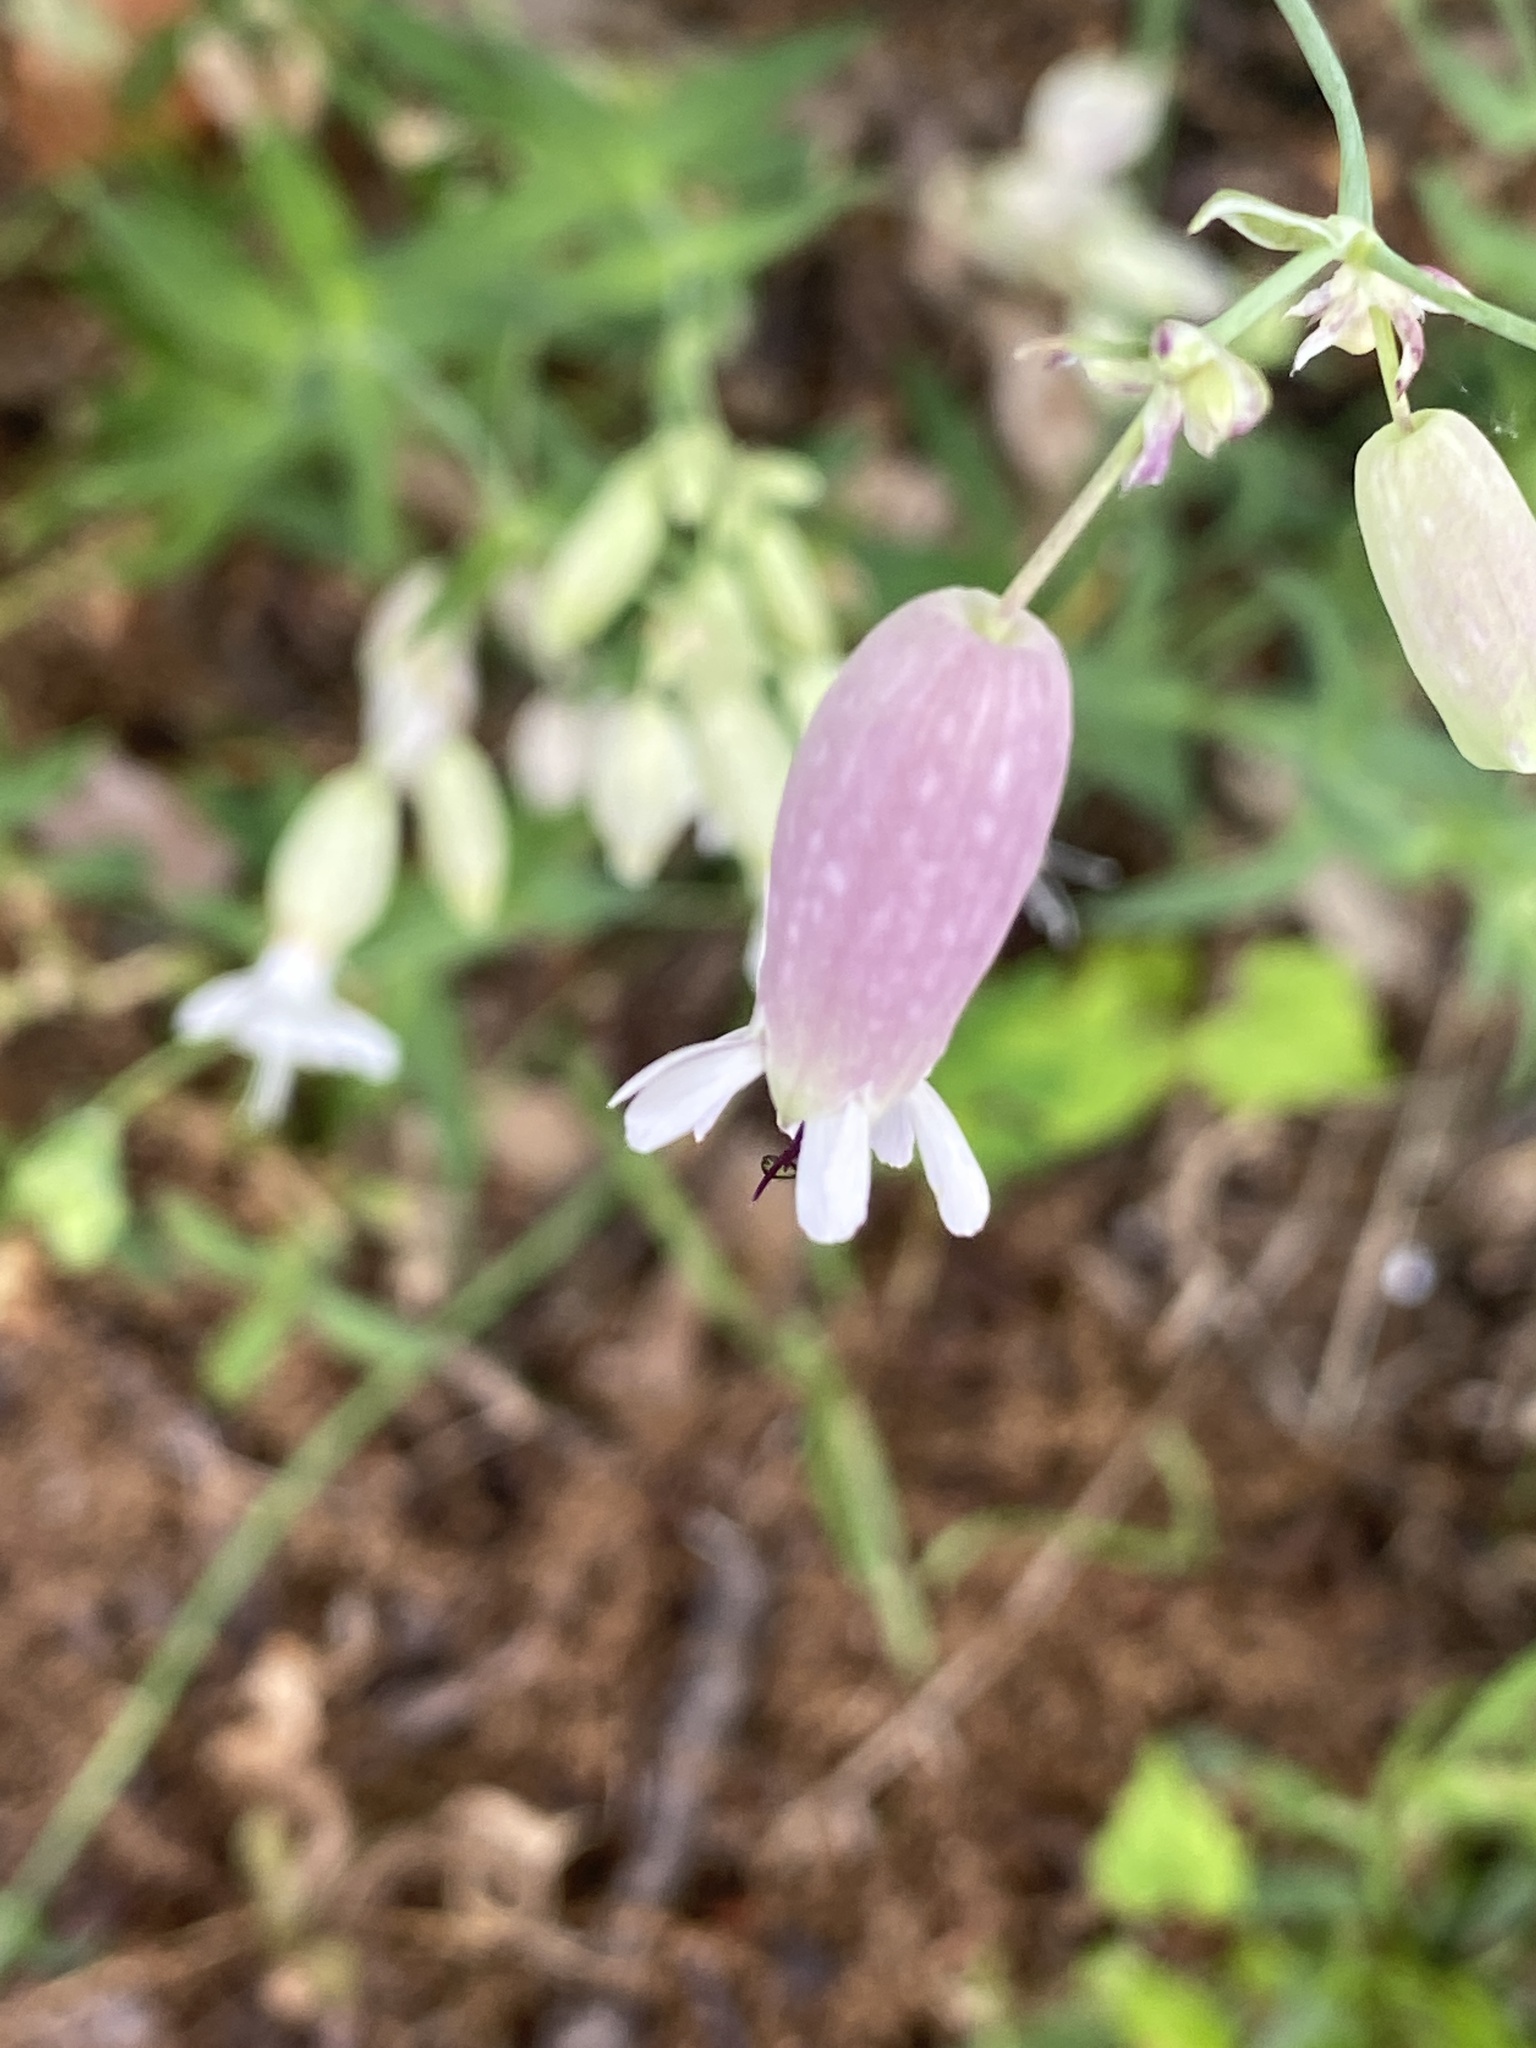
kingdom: Plantae
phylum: Tracheophyta
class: Magnoliopsida
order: Caryophyllales
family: Caryophyllaceae
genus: Silene
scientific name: Silene vulgaris
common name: Bladder campion
